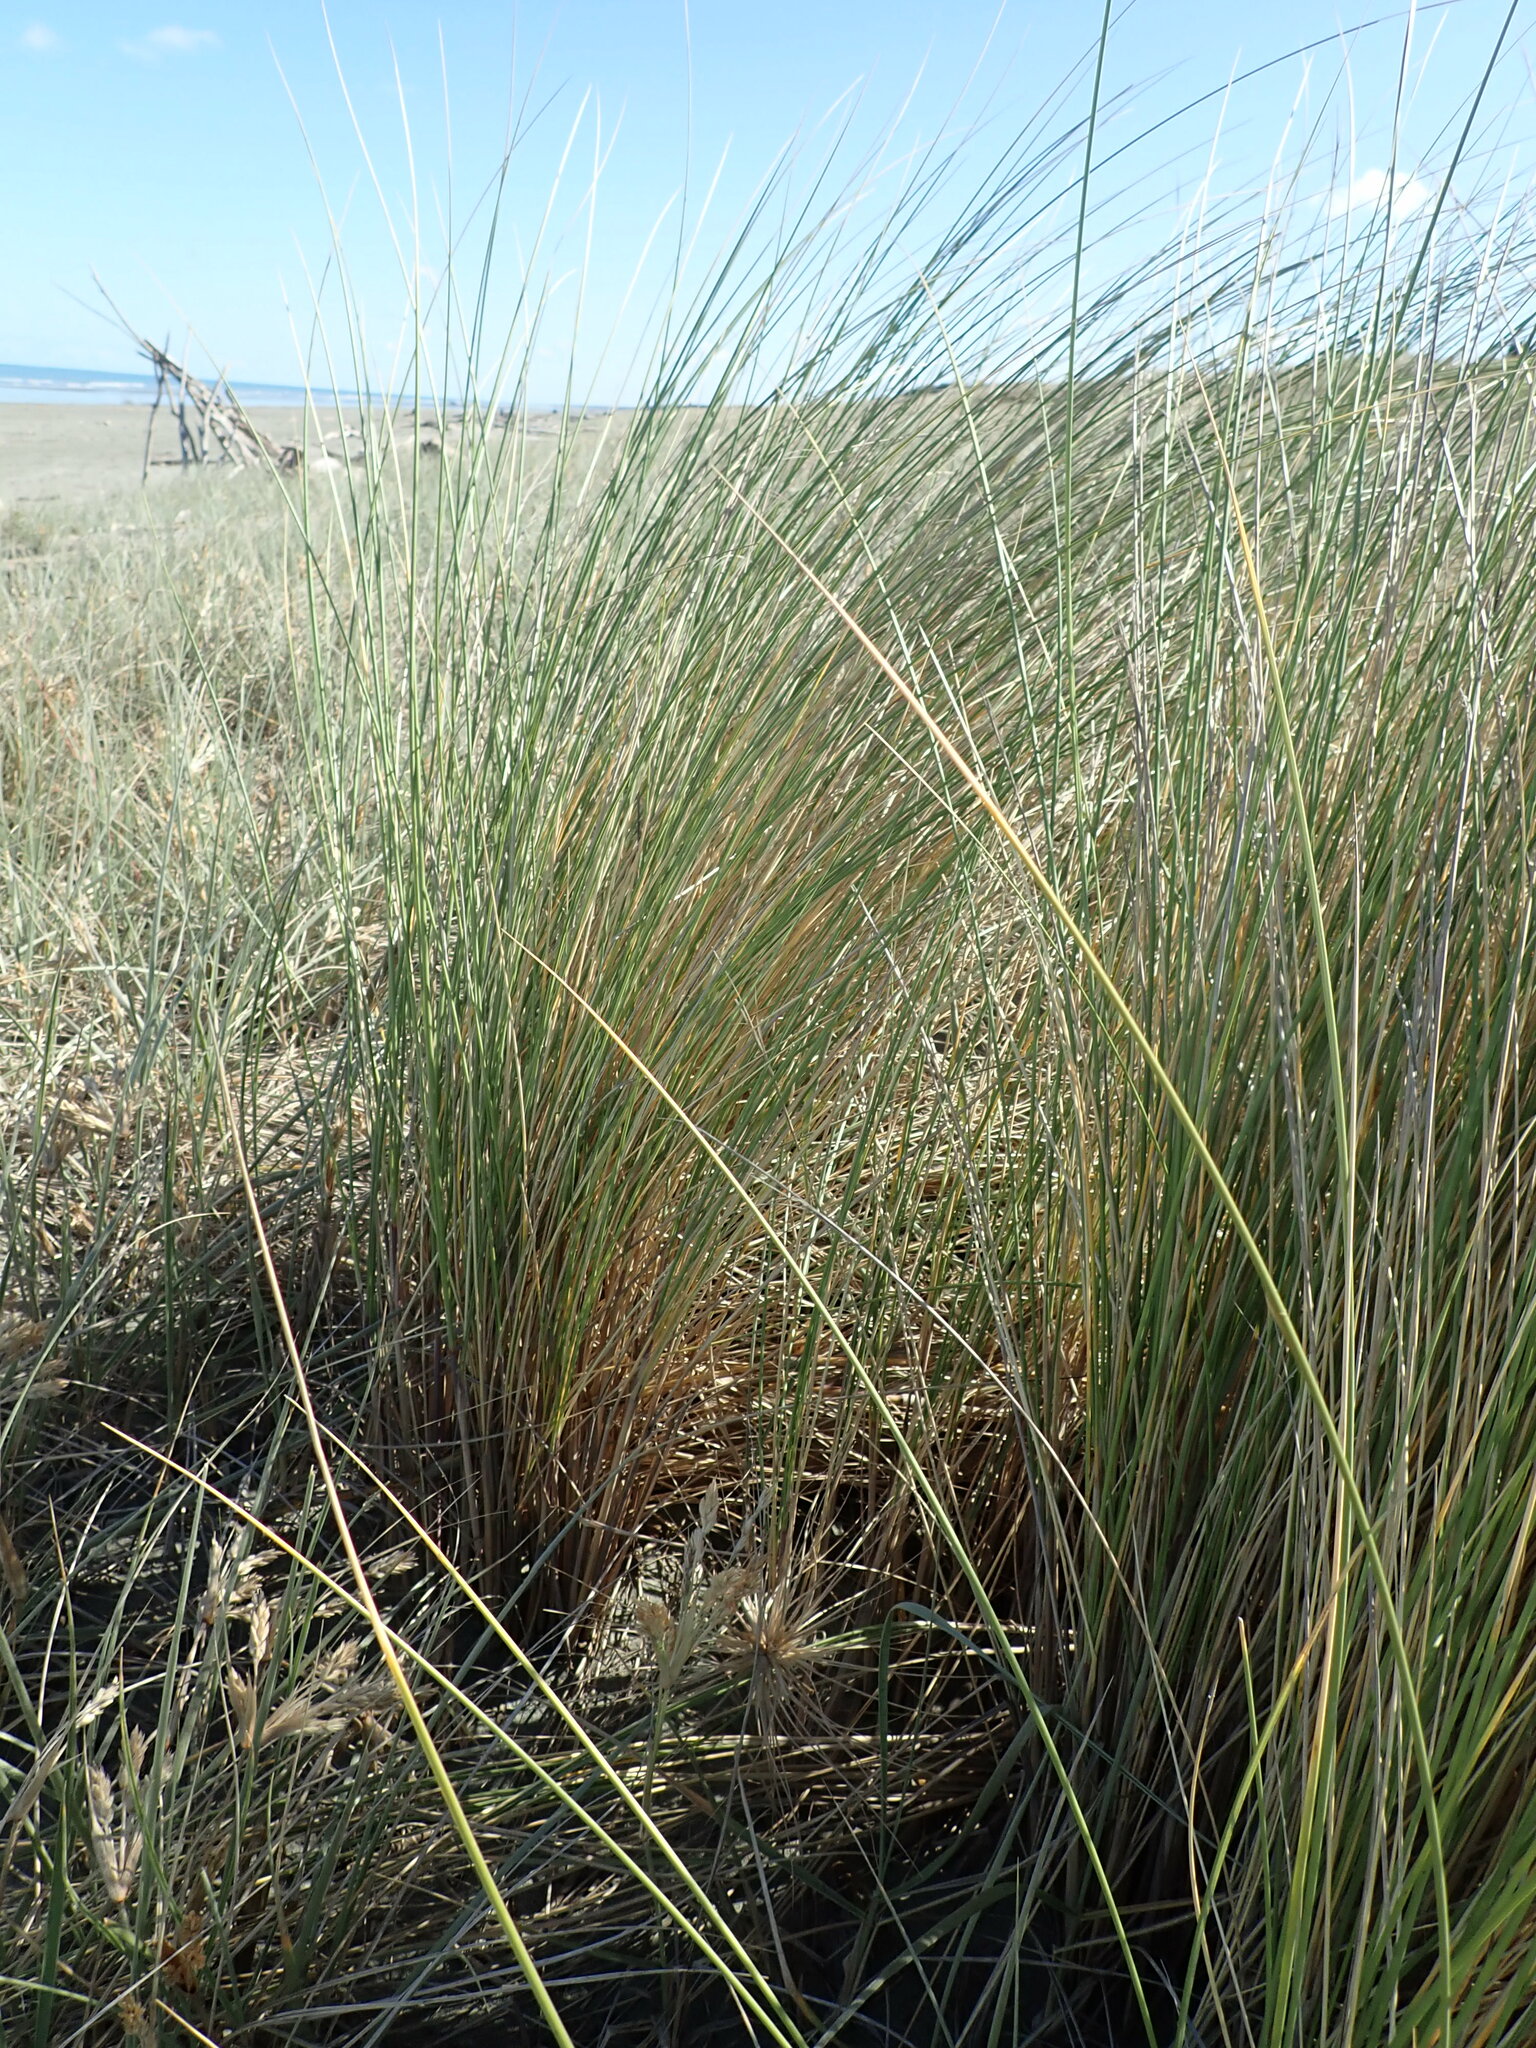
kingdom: Plantae
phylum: Tracheophyta
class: Liliopsida
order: Poales
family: Poaceae
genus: Calamagrostis
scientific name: Calamagrostis arenaria
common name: European beachgrass
